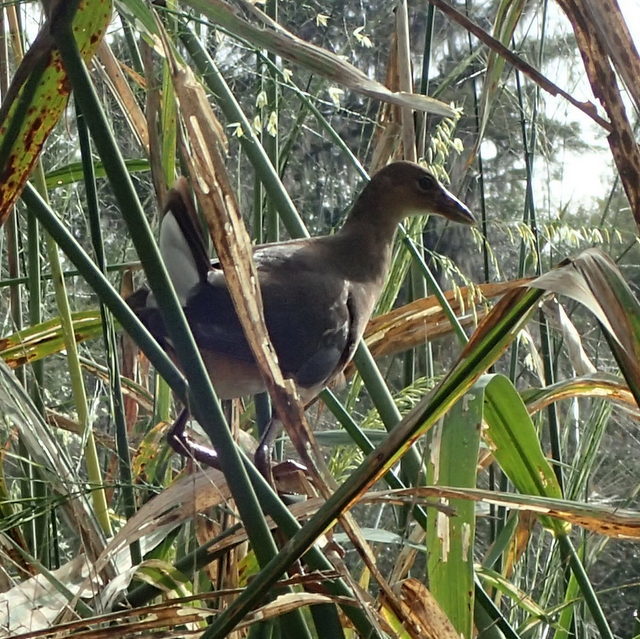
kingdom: Animalia
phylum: Chordata
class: Aves
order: Gruiformes
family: Rallidae
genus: Porphyrio
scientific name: Porphyrio martinica
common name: Purple gallinule
